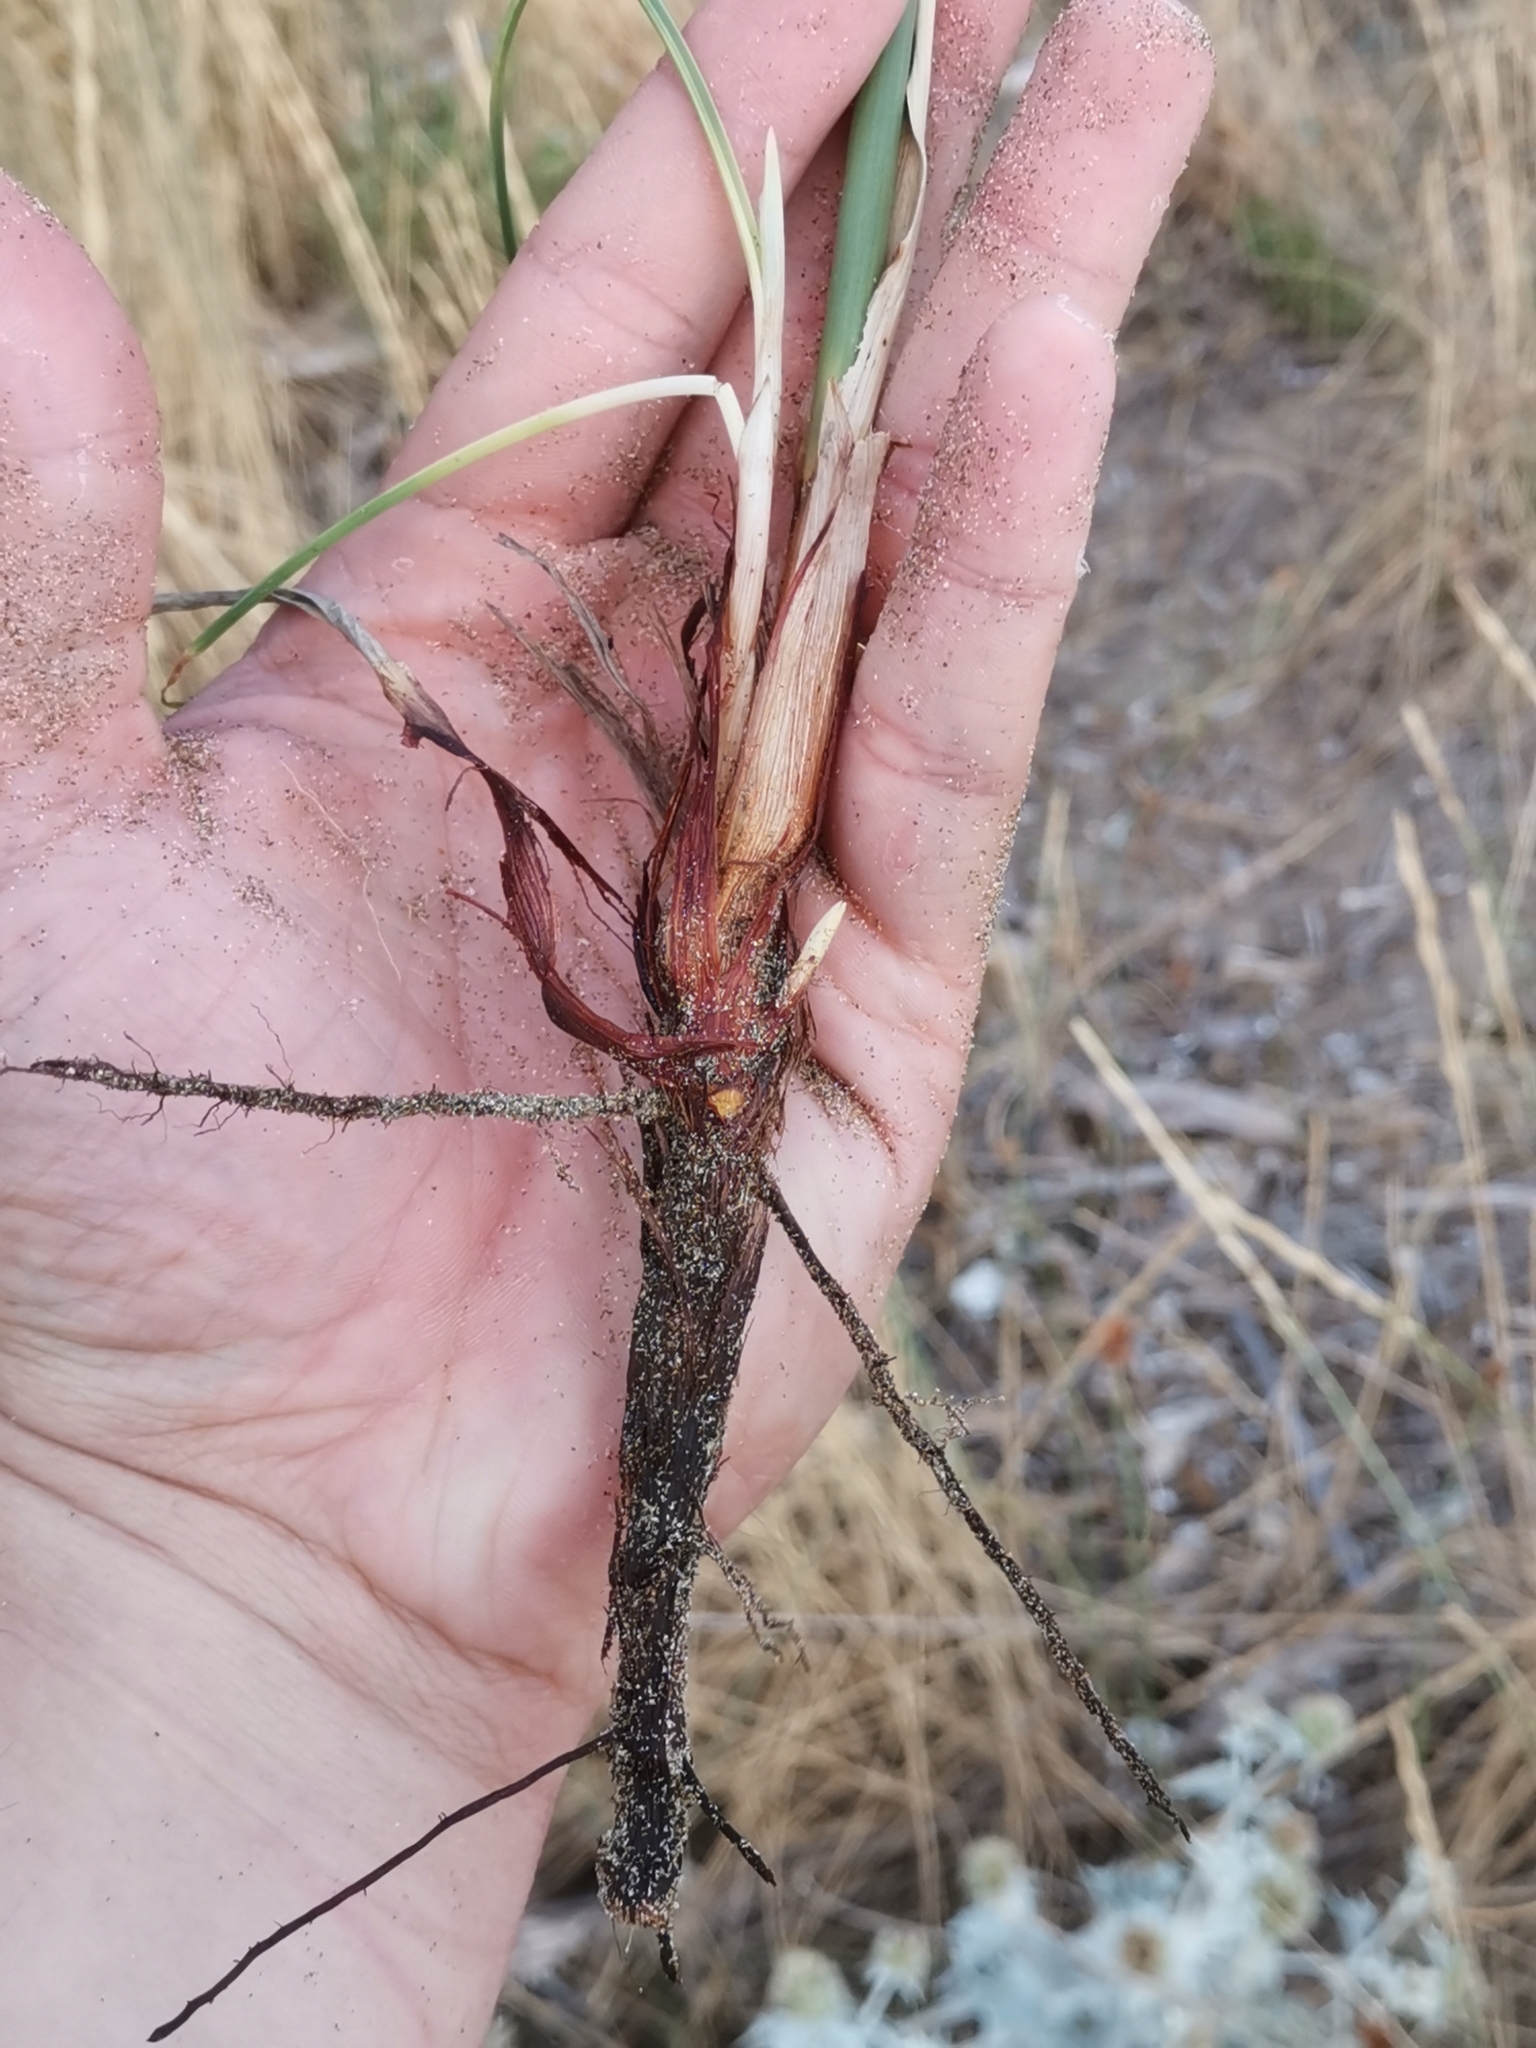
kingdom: Plantae
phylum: Tracheophyta
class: Liliopsida
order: Poales
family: Cyperaceae
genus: Cyperus
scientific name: Cyperus capitatus
